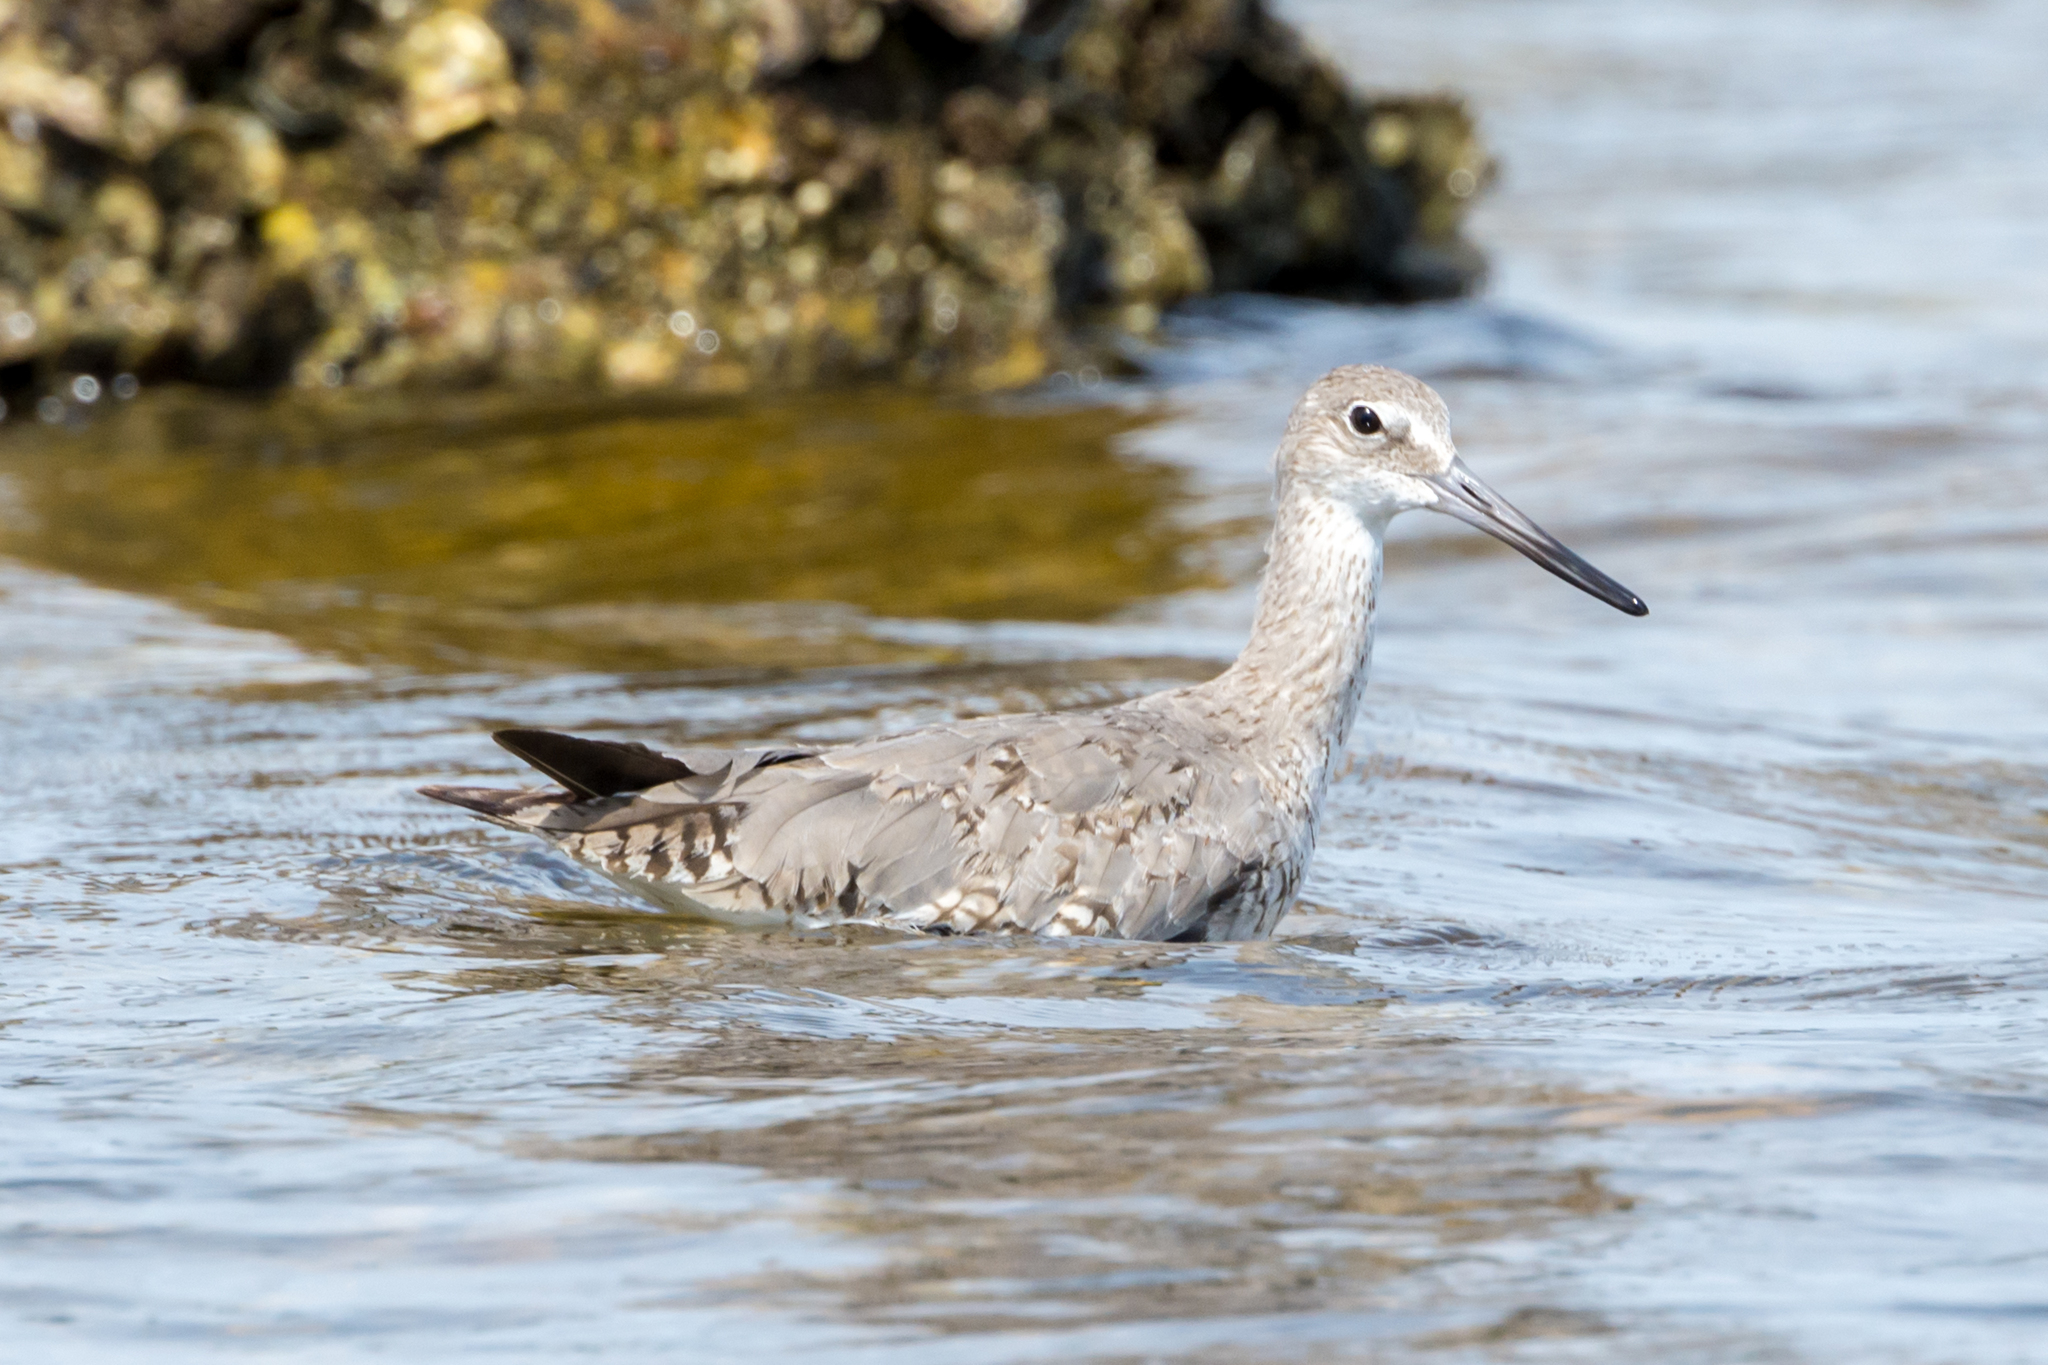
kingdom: Animalia
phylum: Chordata
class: Aves
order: Charadriiformes
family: Scolopacidae
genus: Tringa
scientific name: Tringa semipalmata
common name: Willet
